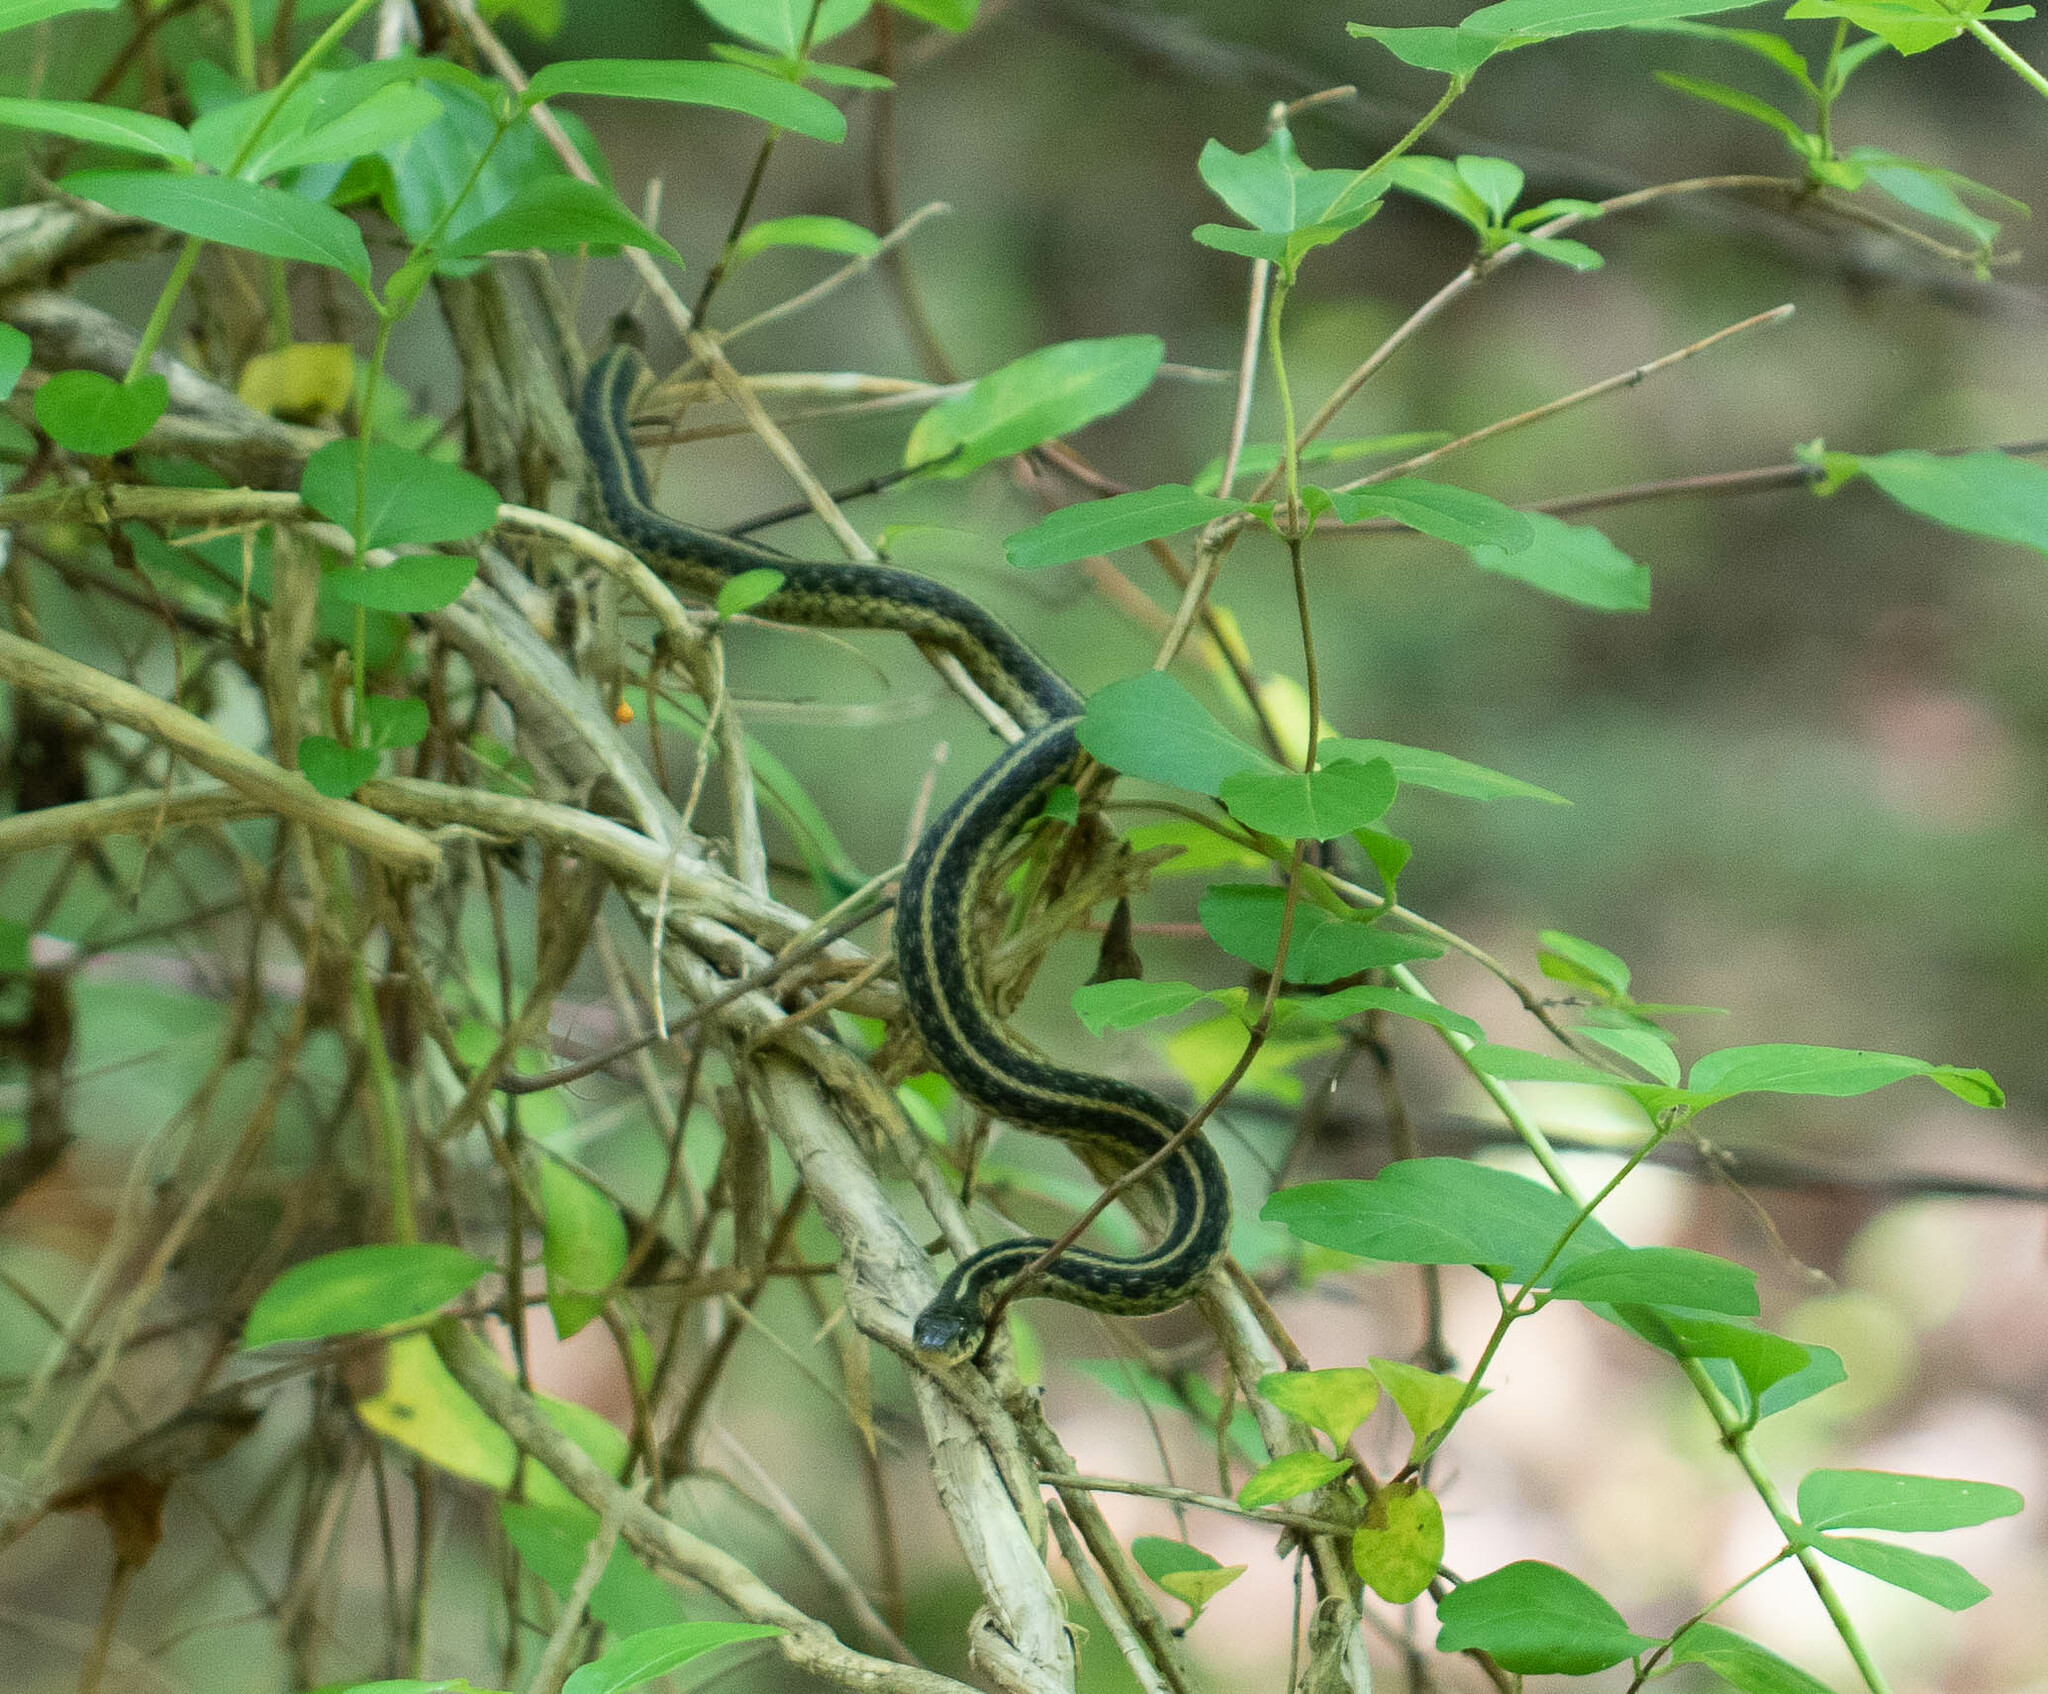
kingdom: Animalia
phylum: Chordata
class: Squamata
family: Colubridae
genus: Thamnophis
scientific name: Thamnophis sirtalis
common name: Common garter snake
